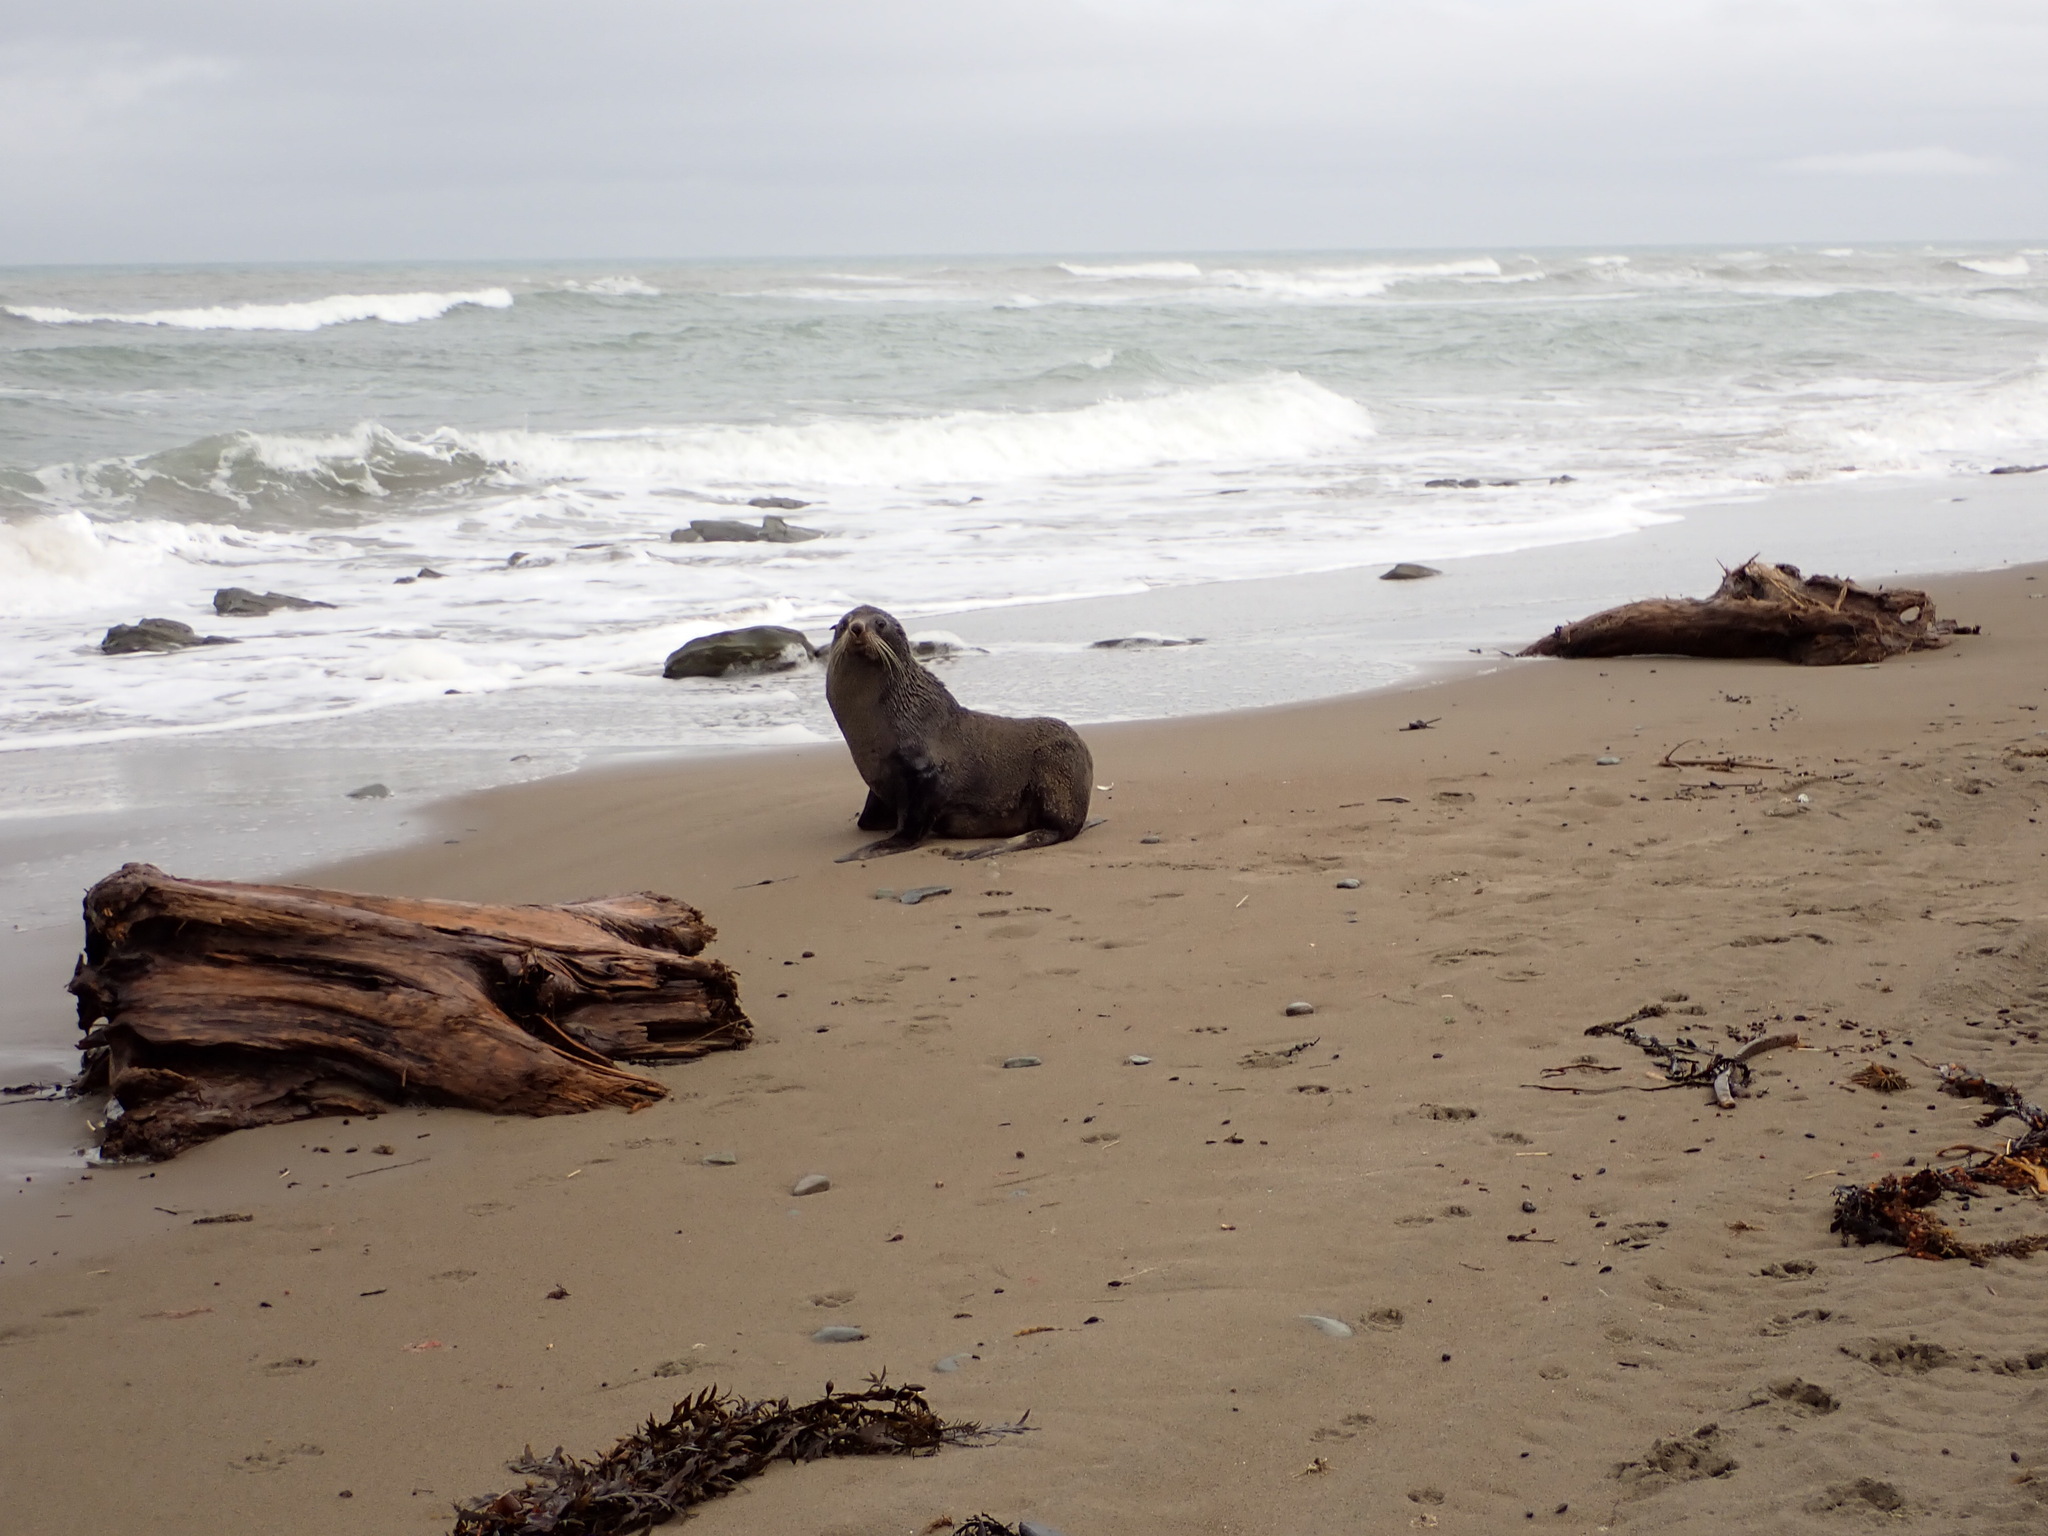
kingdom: Animalia
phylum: Chordata
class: Mammalia
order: Carnivora
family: Otariidae
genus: Arctocephalus
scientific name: Arctocephalus forsteri
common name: New zealand fur seal
